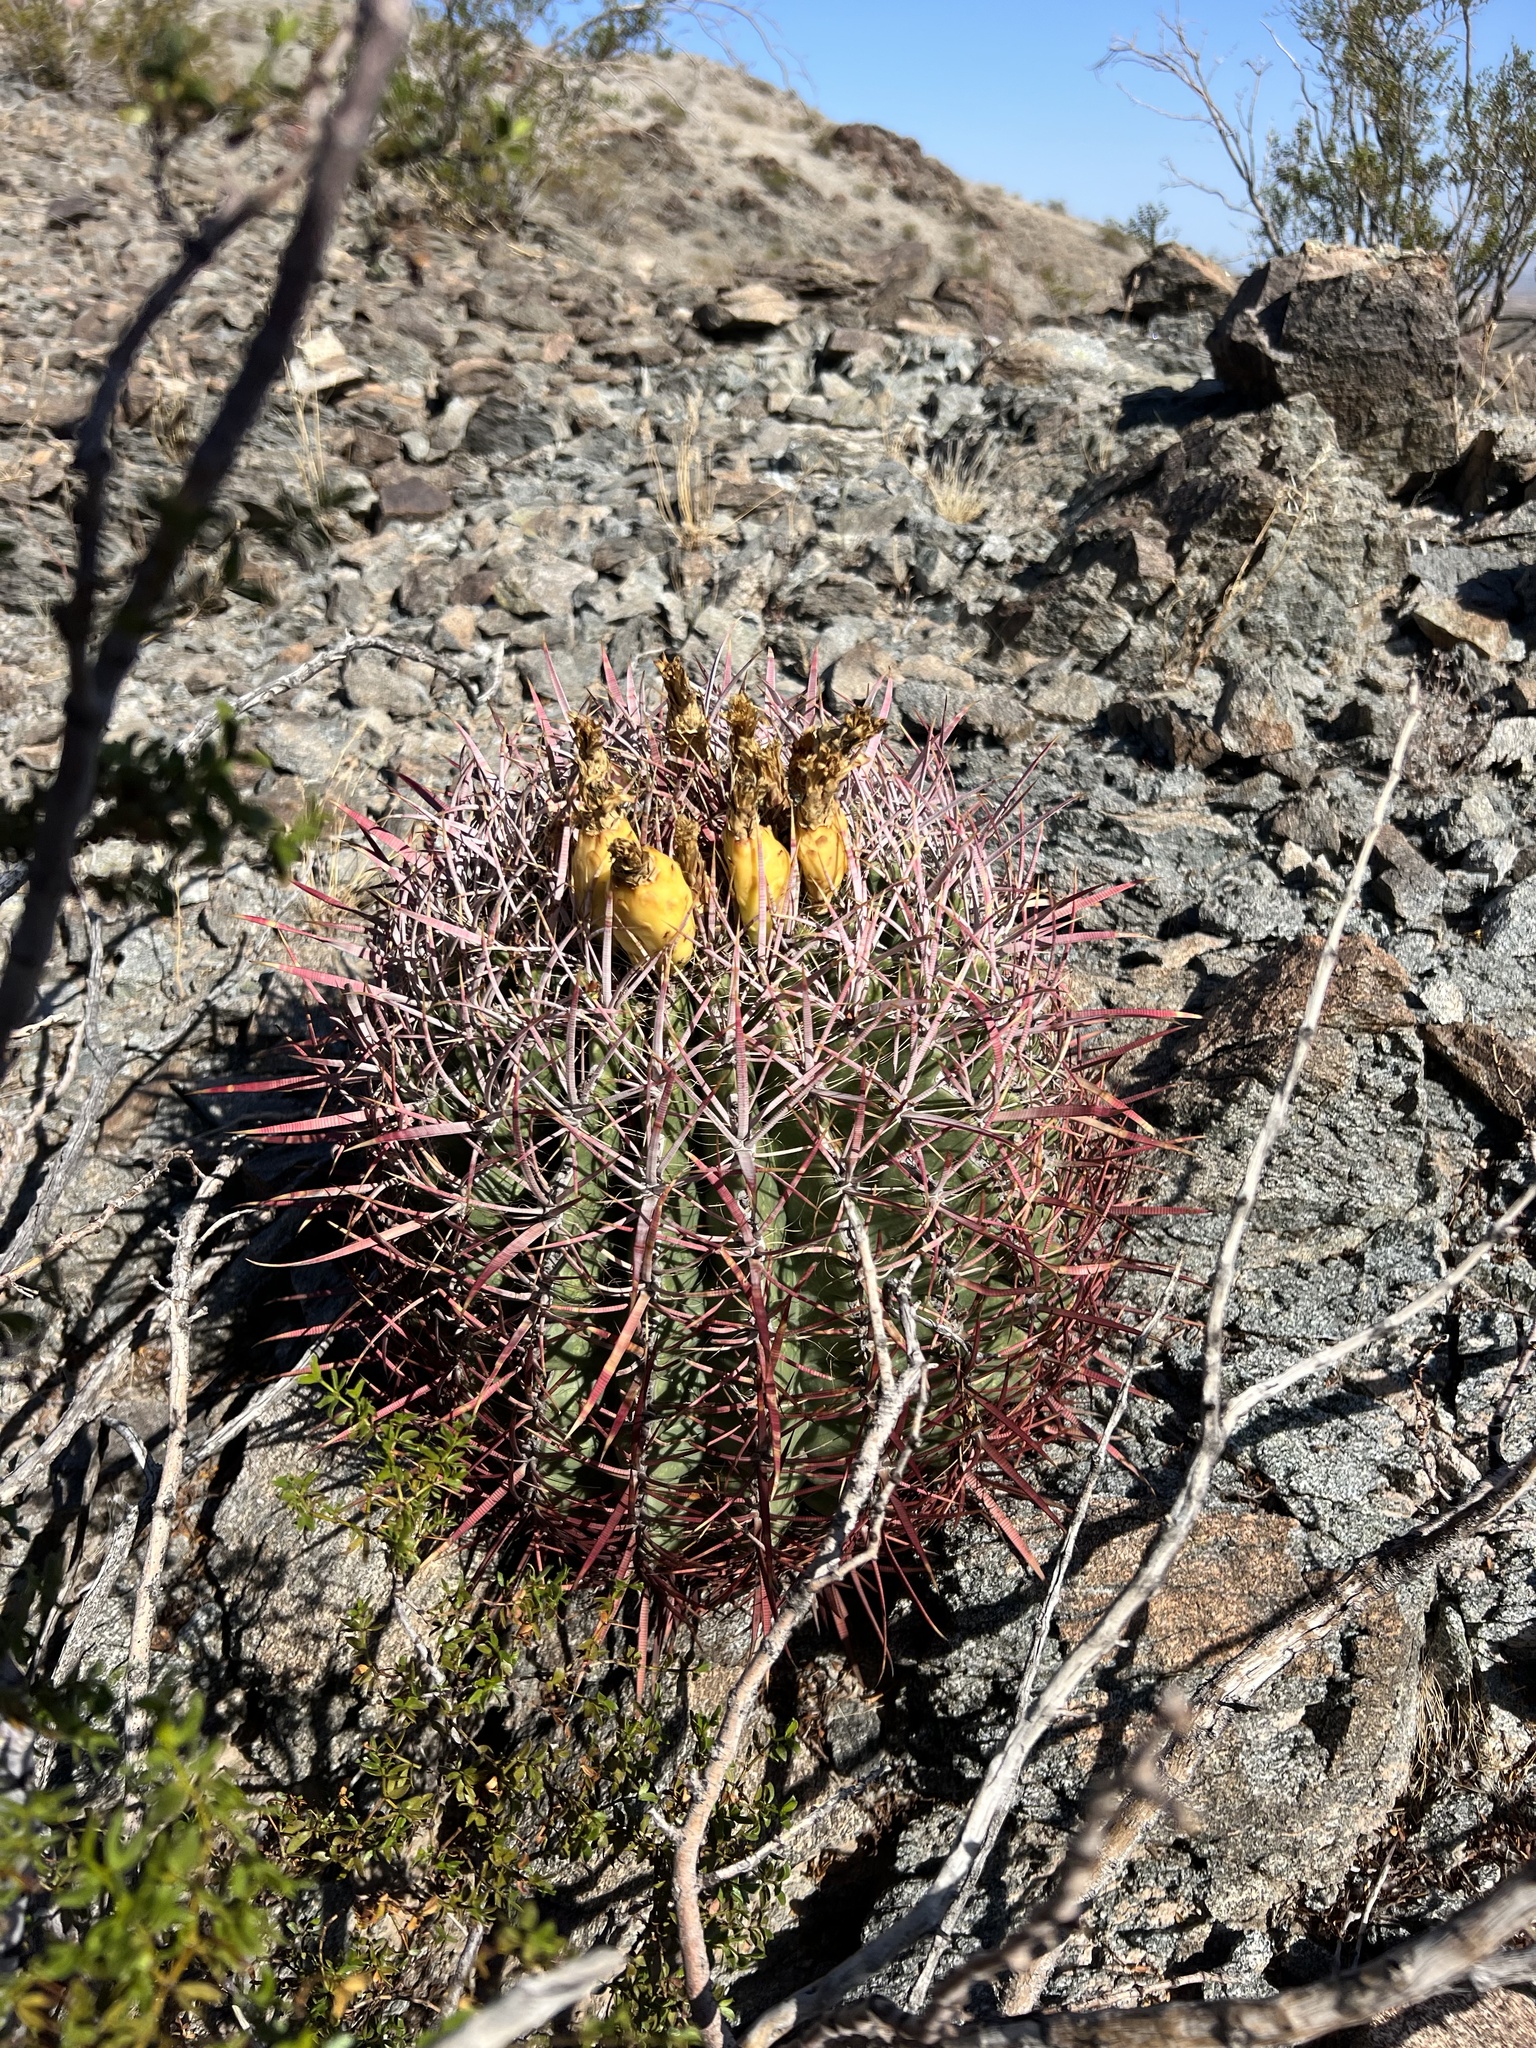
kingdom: Plantae
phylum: Tracheophyta
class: Magnoliopsida
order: Caryophyllales
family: Cactaceae
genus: Ferocactus
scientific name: Ferocactus cylindraceus
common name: California barrel cactus
